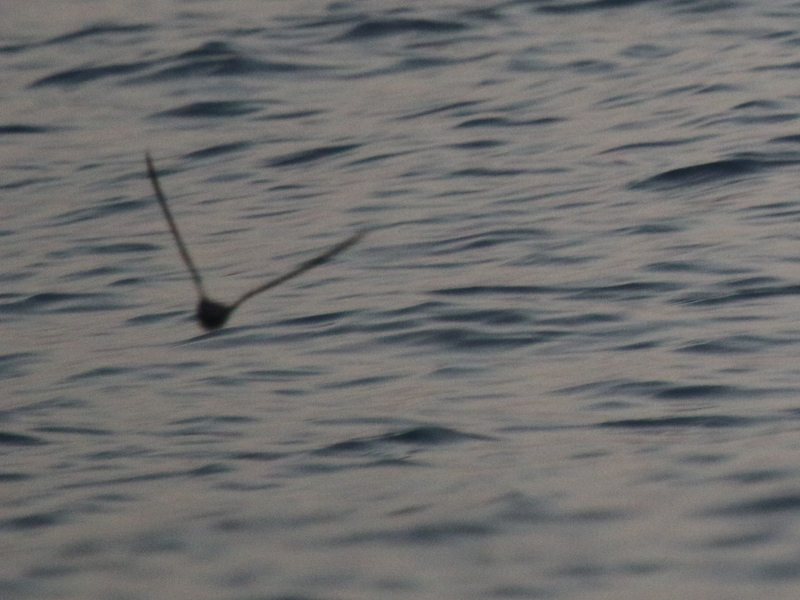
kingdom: Animalia
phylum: Chordata
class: Aves
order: Procellariiformes
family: Hydrobatidae
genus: Oceanodroma
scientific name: Oceanodroma monorhis
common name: Swinhoe's storm-petrel
